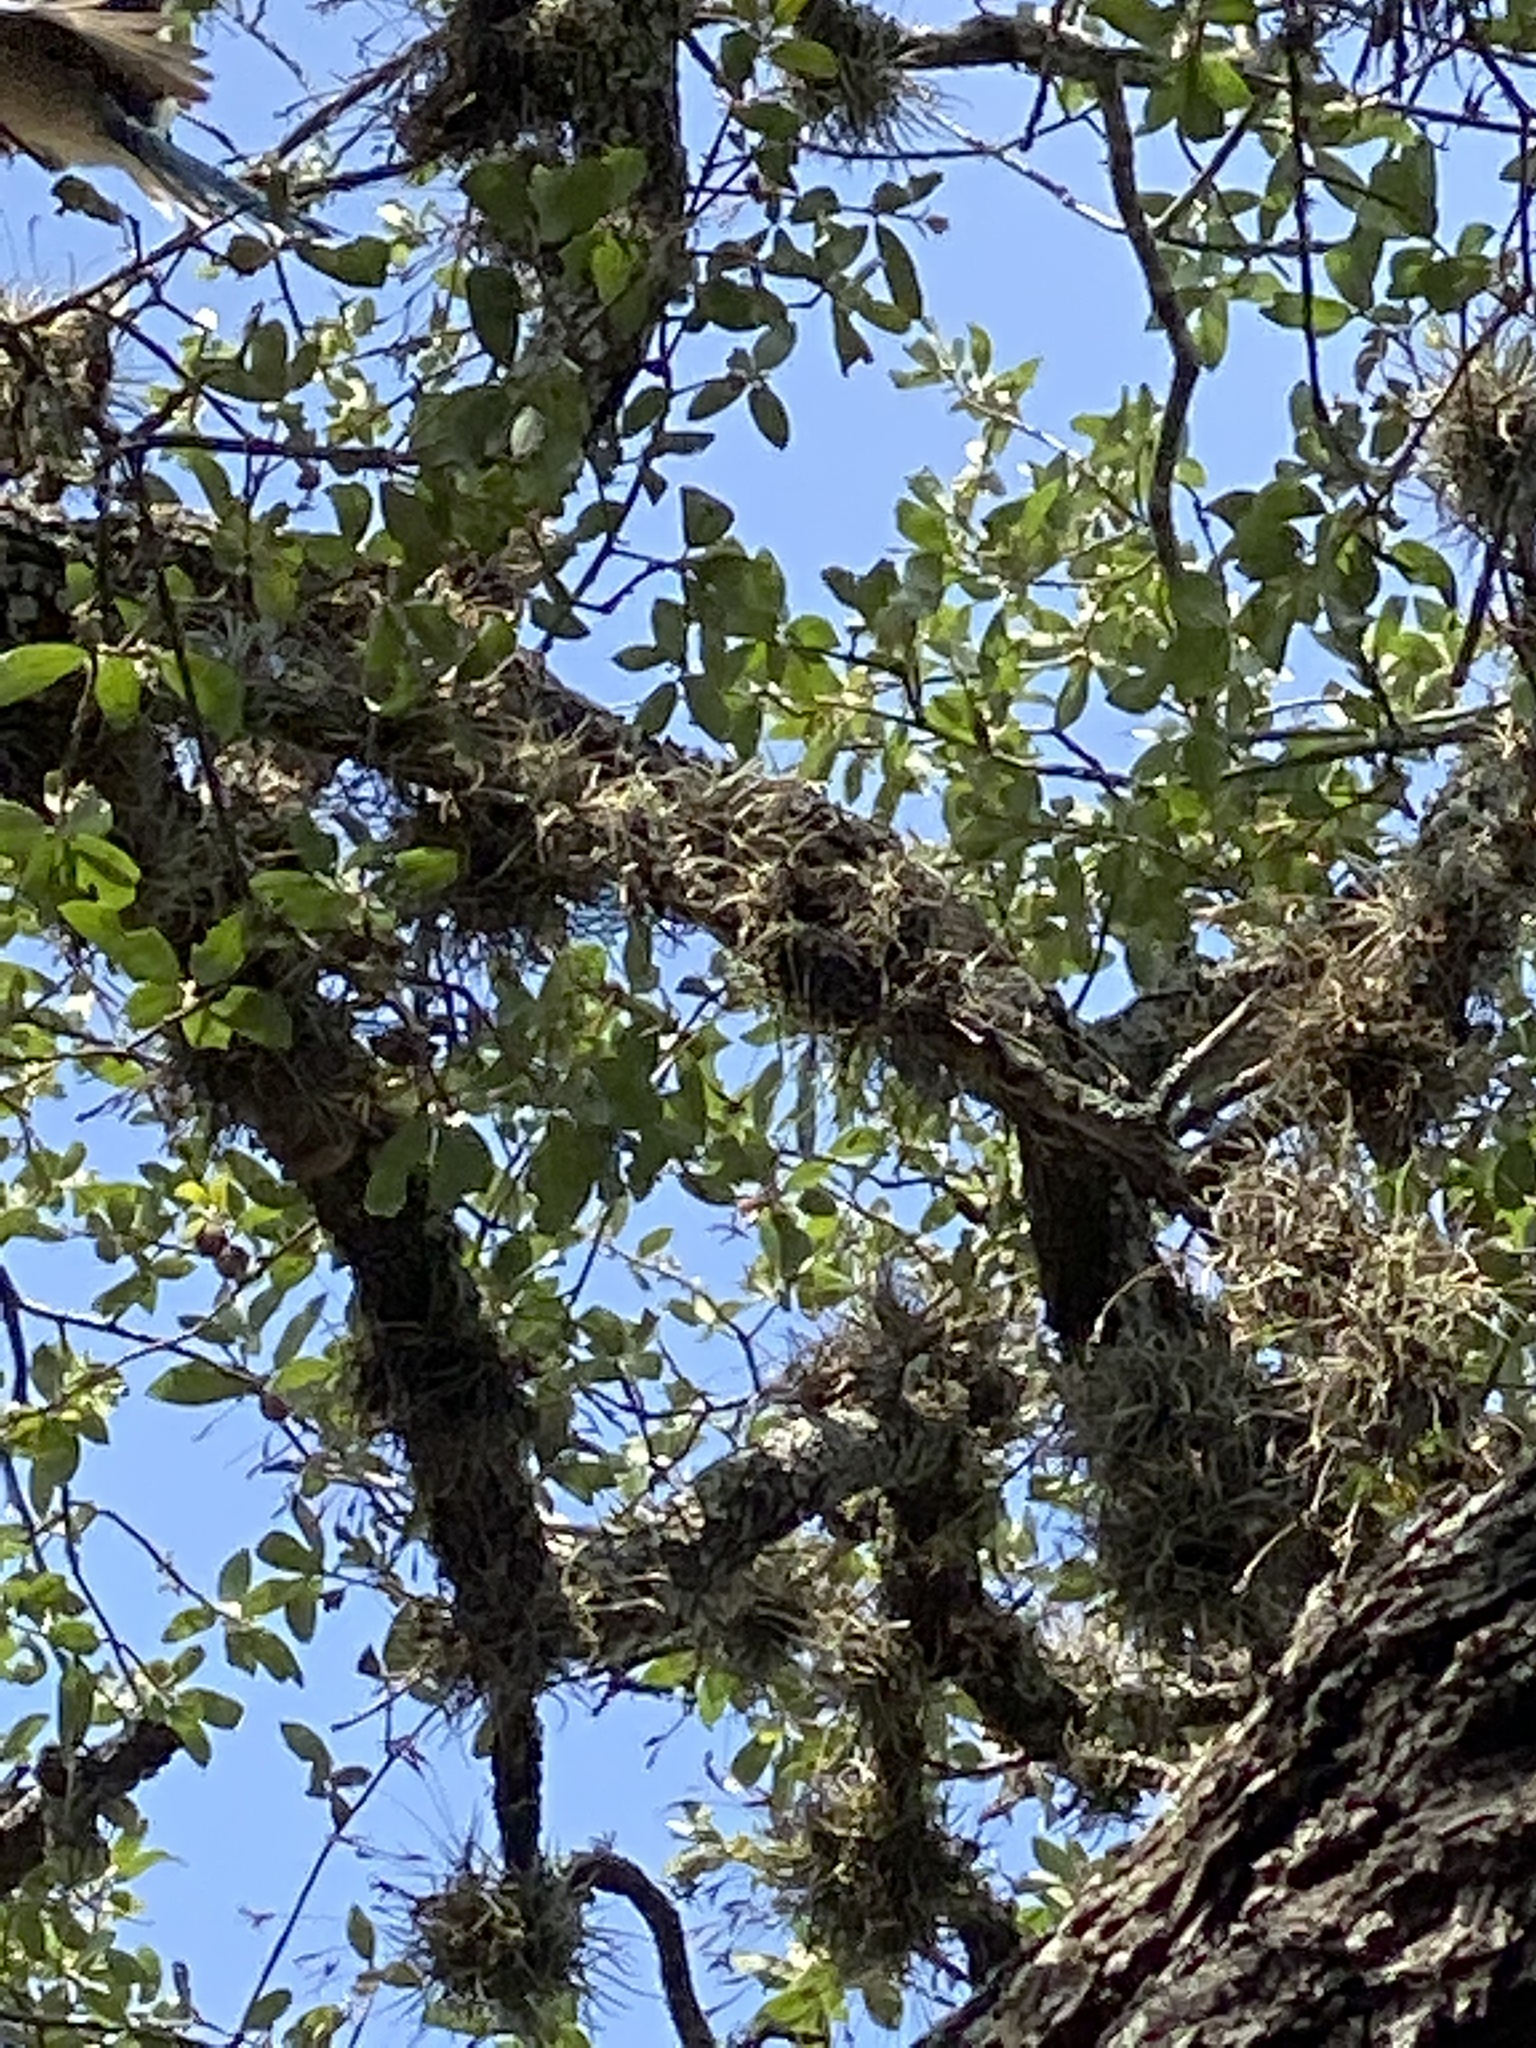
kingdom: Animalia
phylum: Chordata
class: Mammalia
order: Rodentia
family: Sciuridae
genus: Sciurus
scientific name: Sciurus niger
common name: Fox squirrel
